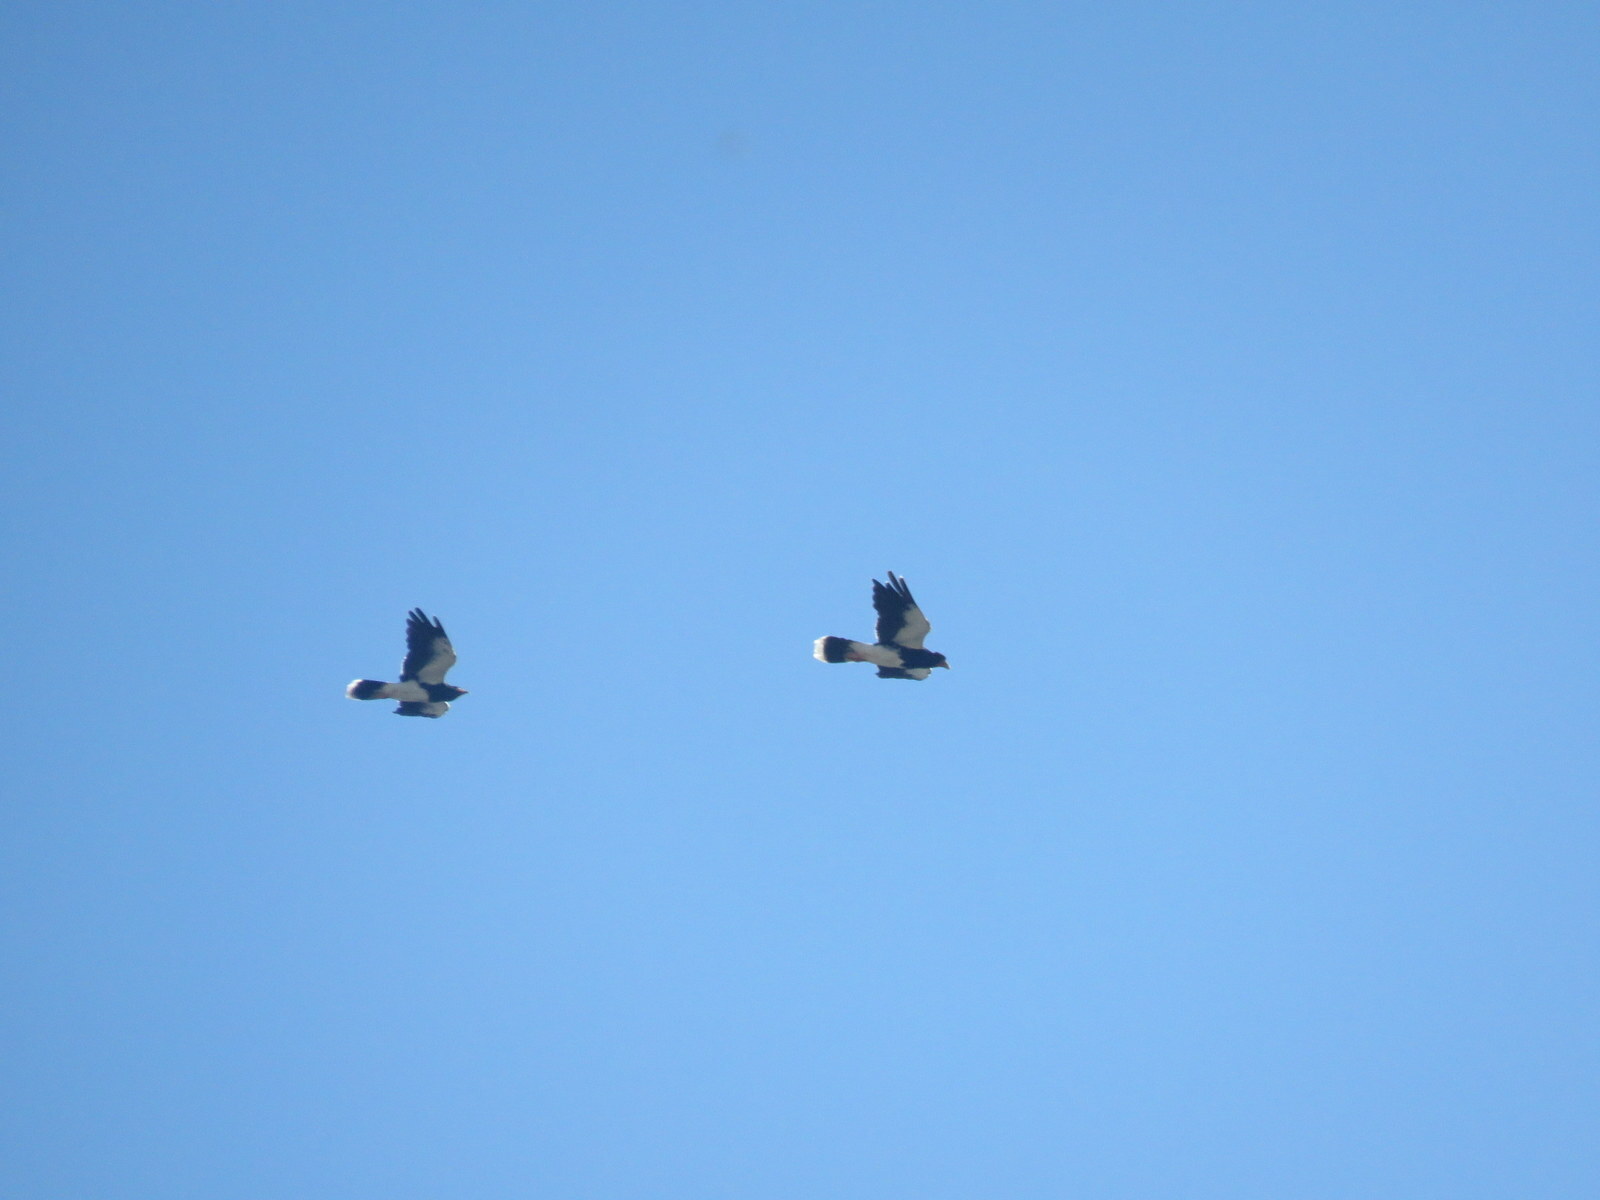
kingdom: Animalia
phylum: Chordata
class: Aves
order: Falconiformes
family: Falconidae
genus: Daptrius
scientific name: Daptrius
